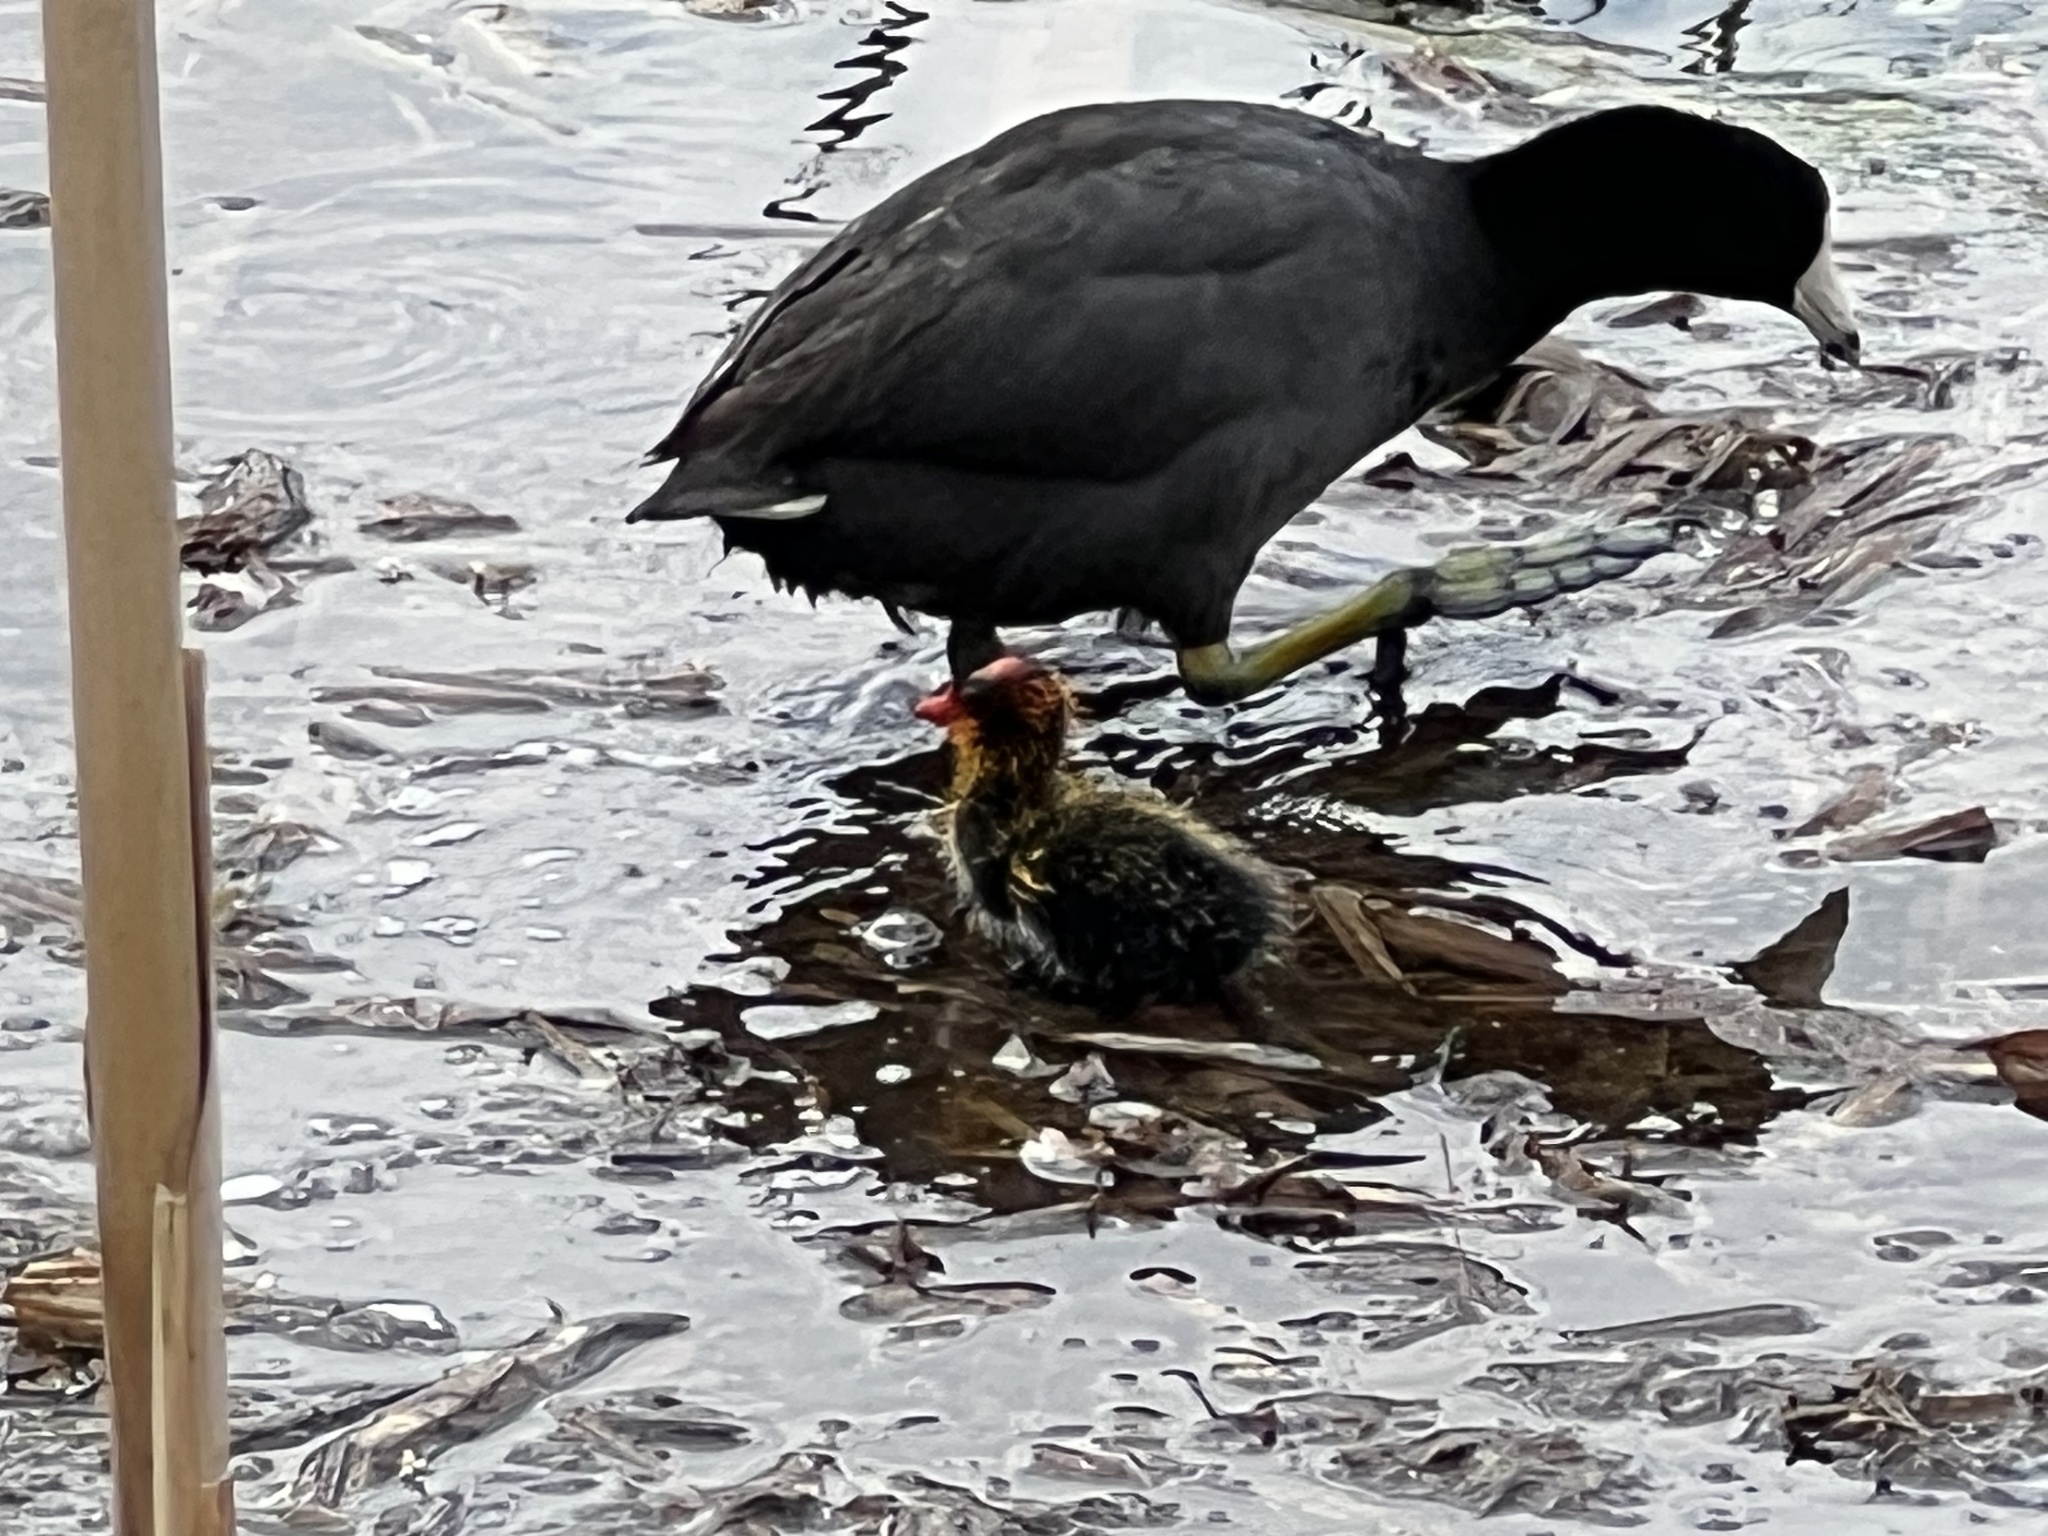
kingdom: Animalia
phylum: Chordata
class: Aves
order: Gruiformes
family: Rallidae
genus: Fulica
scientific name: Fulica americana
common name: American coot
